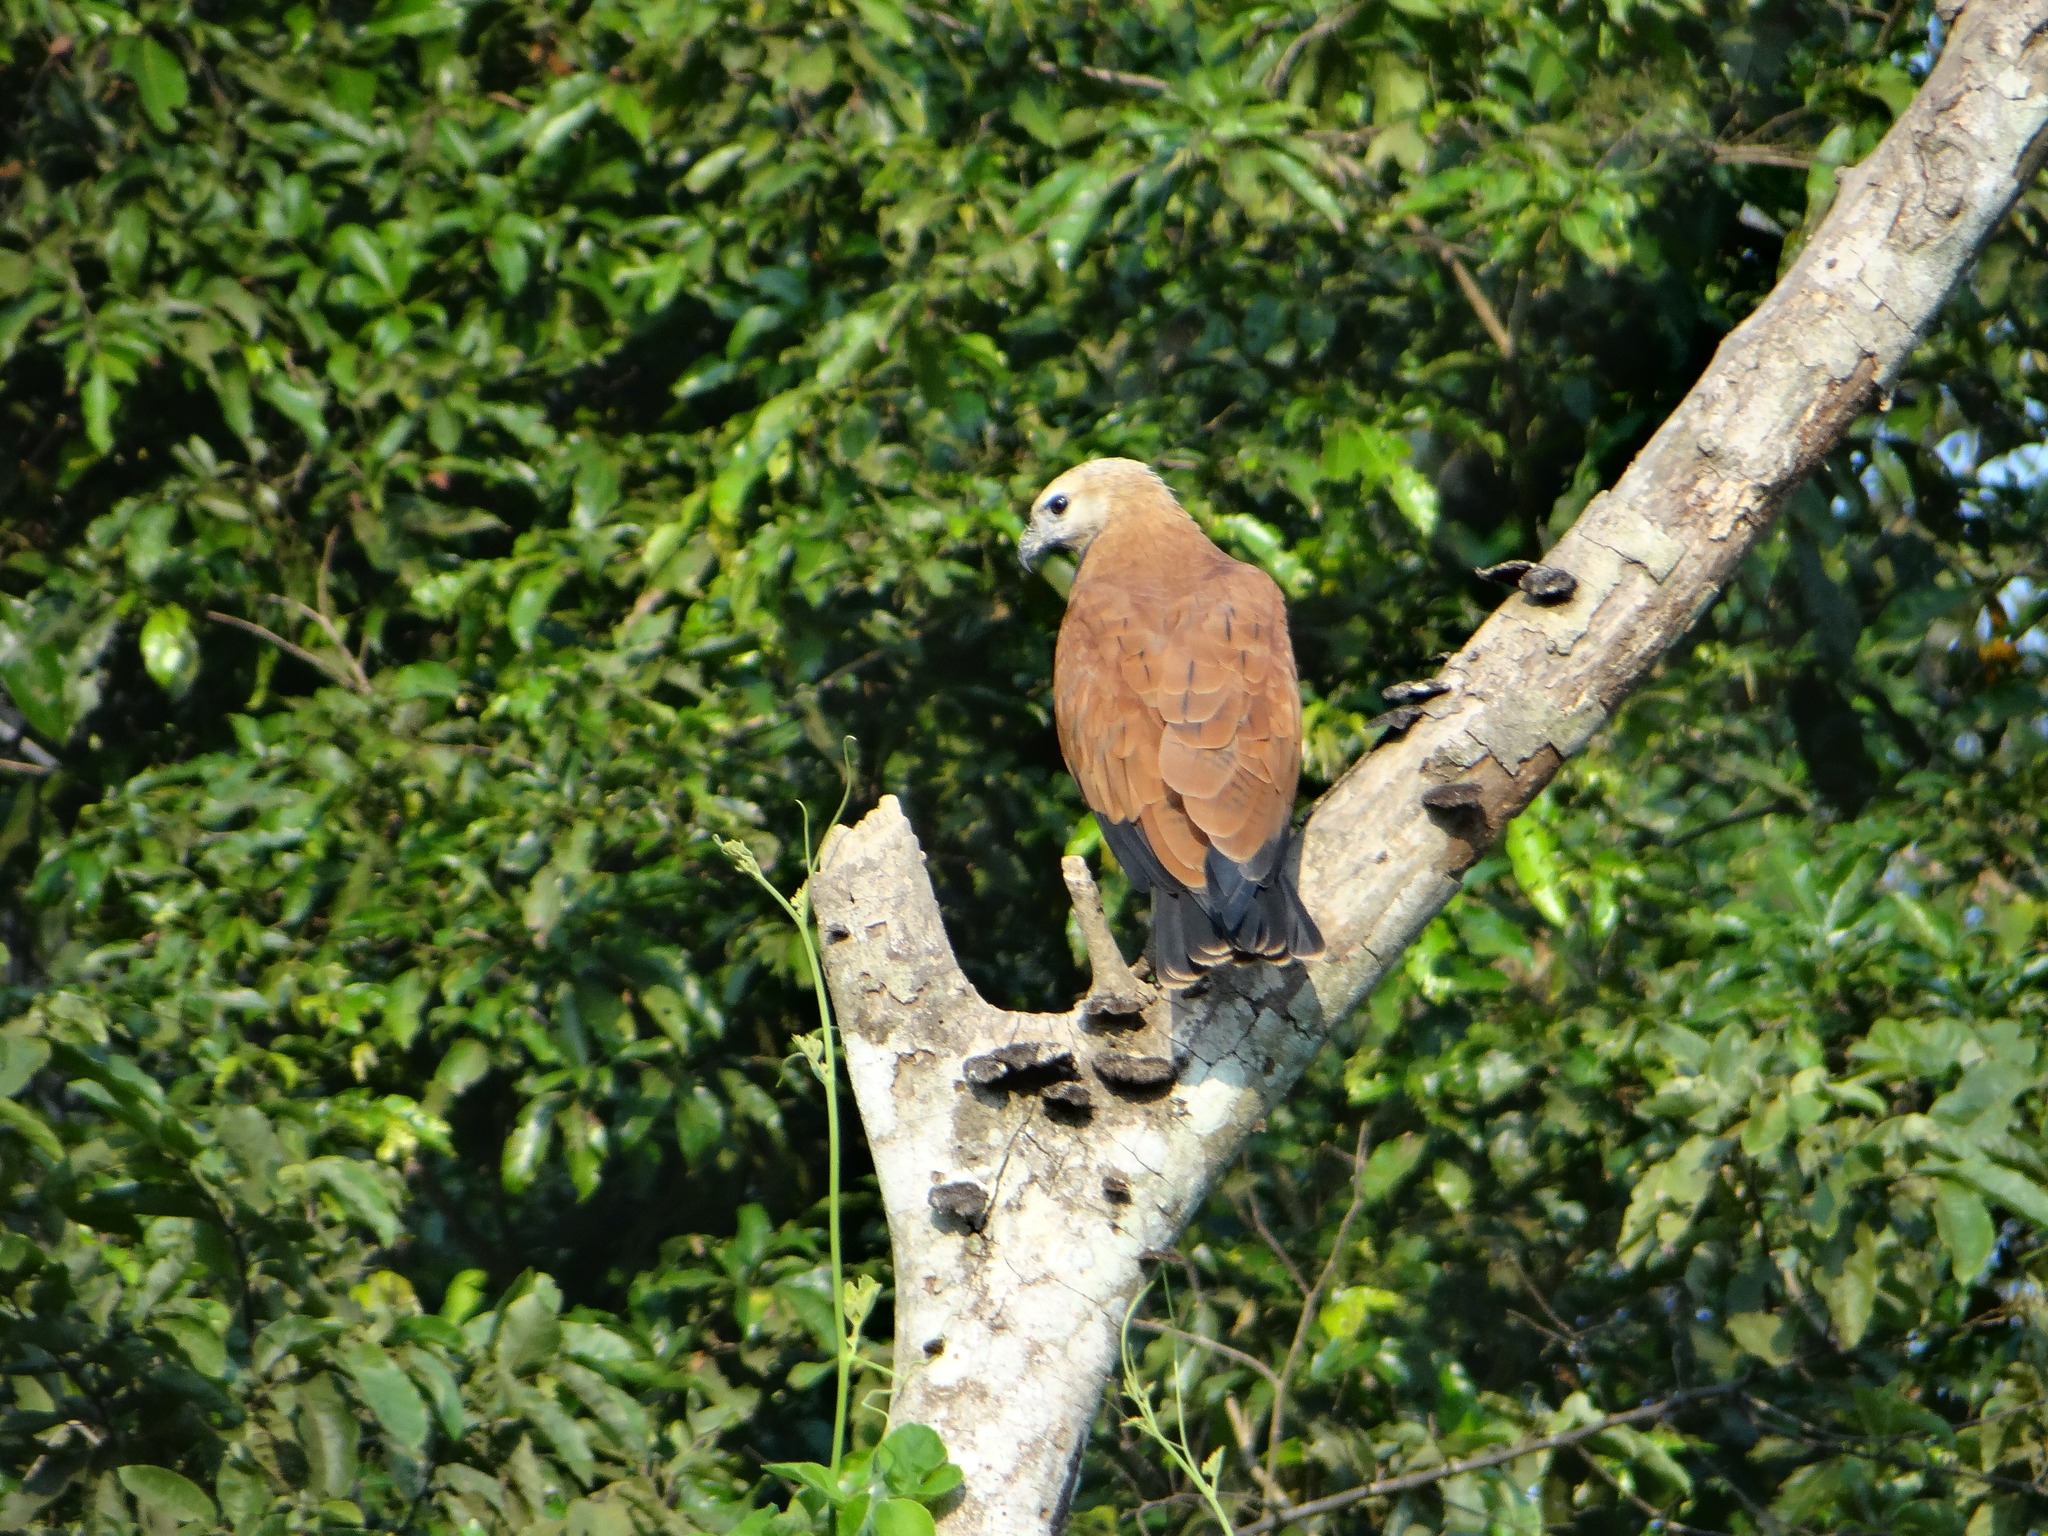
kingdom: Animalia
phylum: Chordata
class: Aves
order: Accipitriformes
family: Accipitridae
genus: Busarellus
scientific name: Busarellus nigricollis
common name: Black-collared hawk
